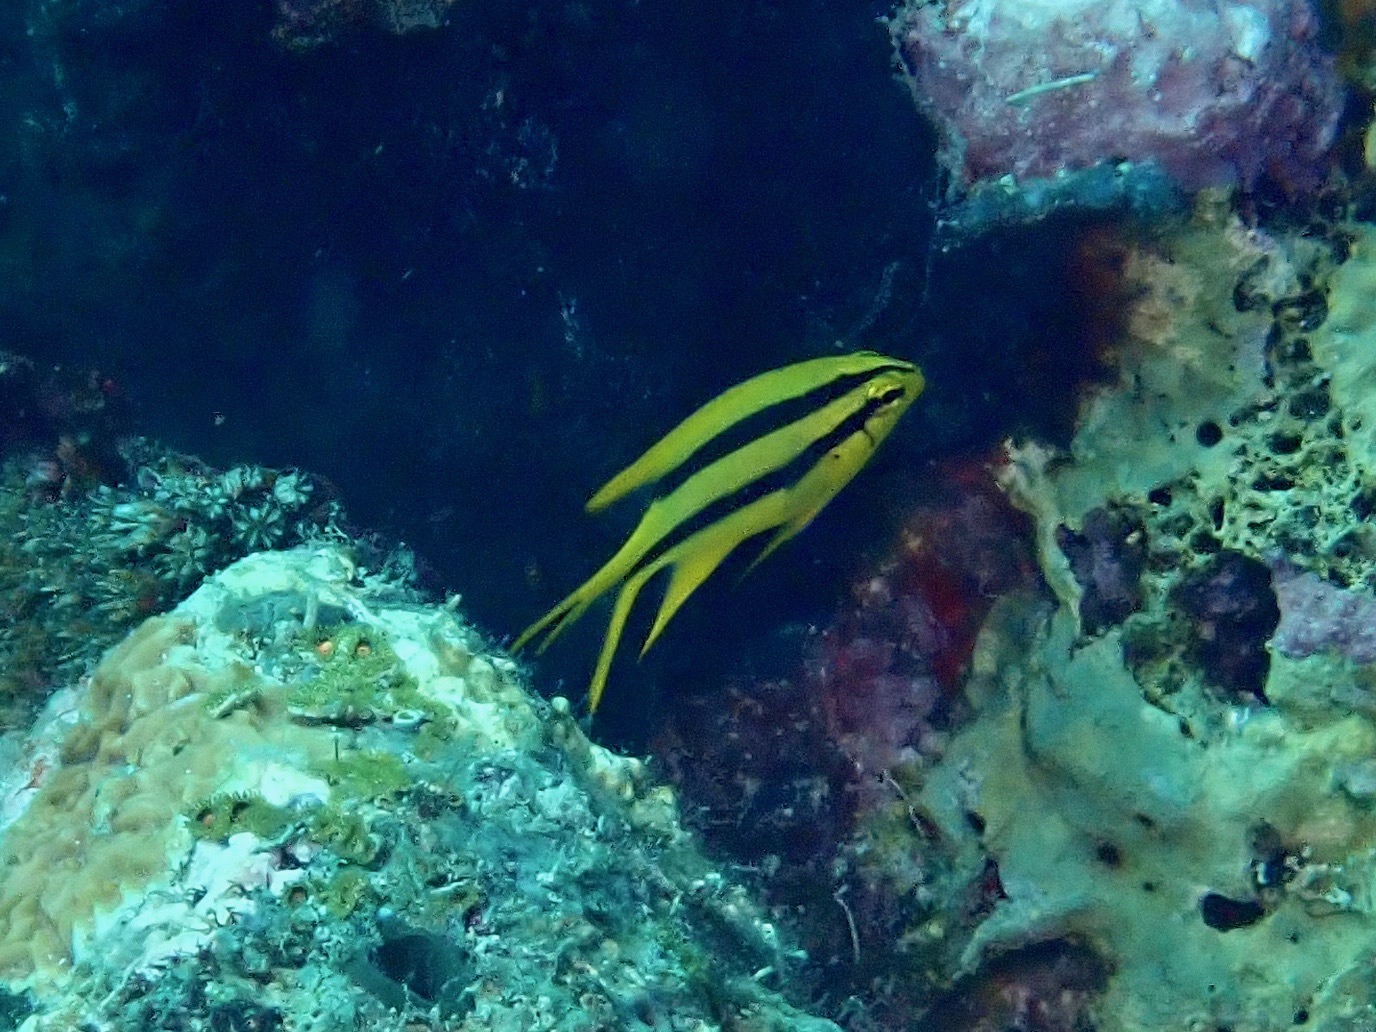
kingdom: Animalia
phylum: Chordata
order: Perciformes
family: Pomacentridae
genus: Neoglyphidodon
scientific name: Neoglyphidodon nigroris
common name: Behn's damsel
